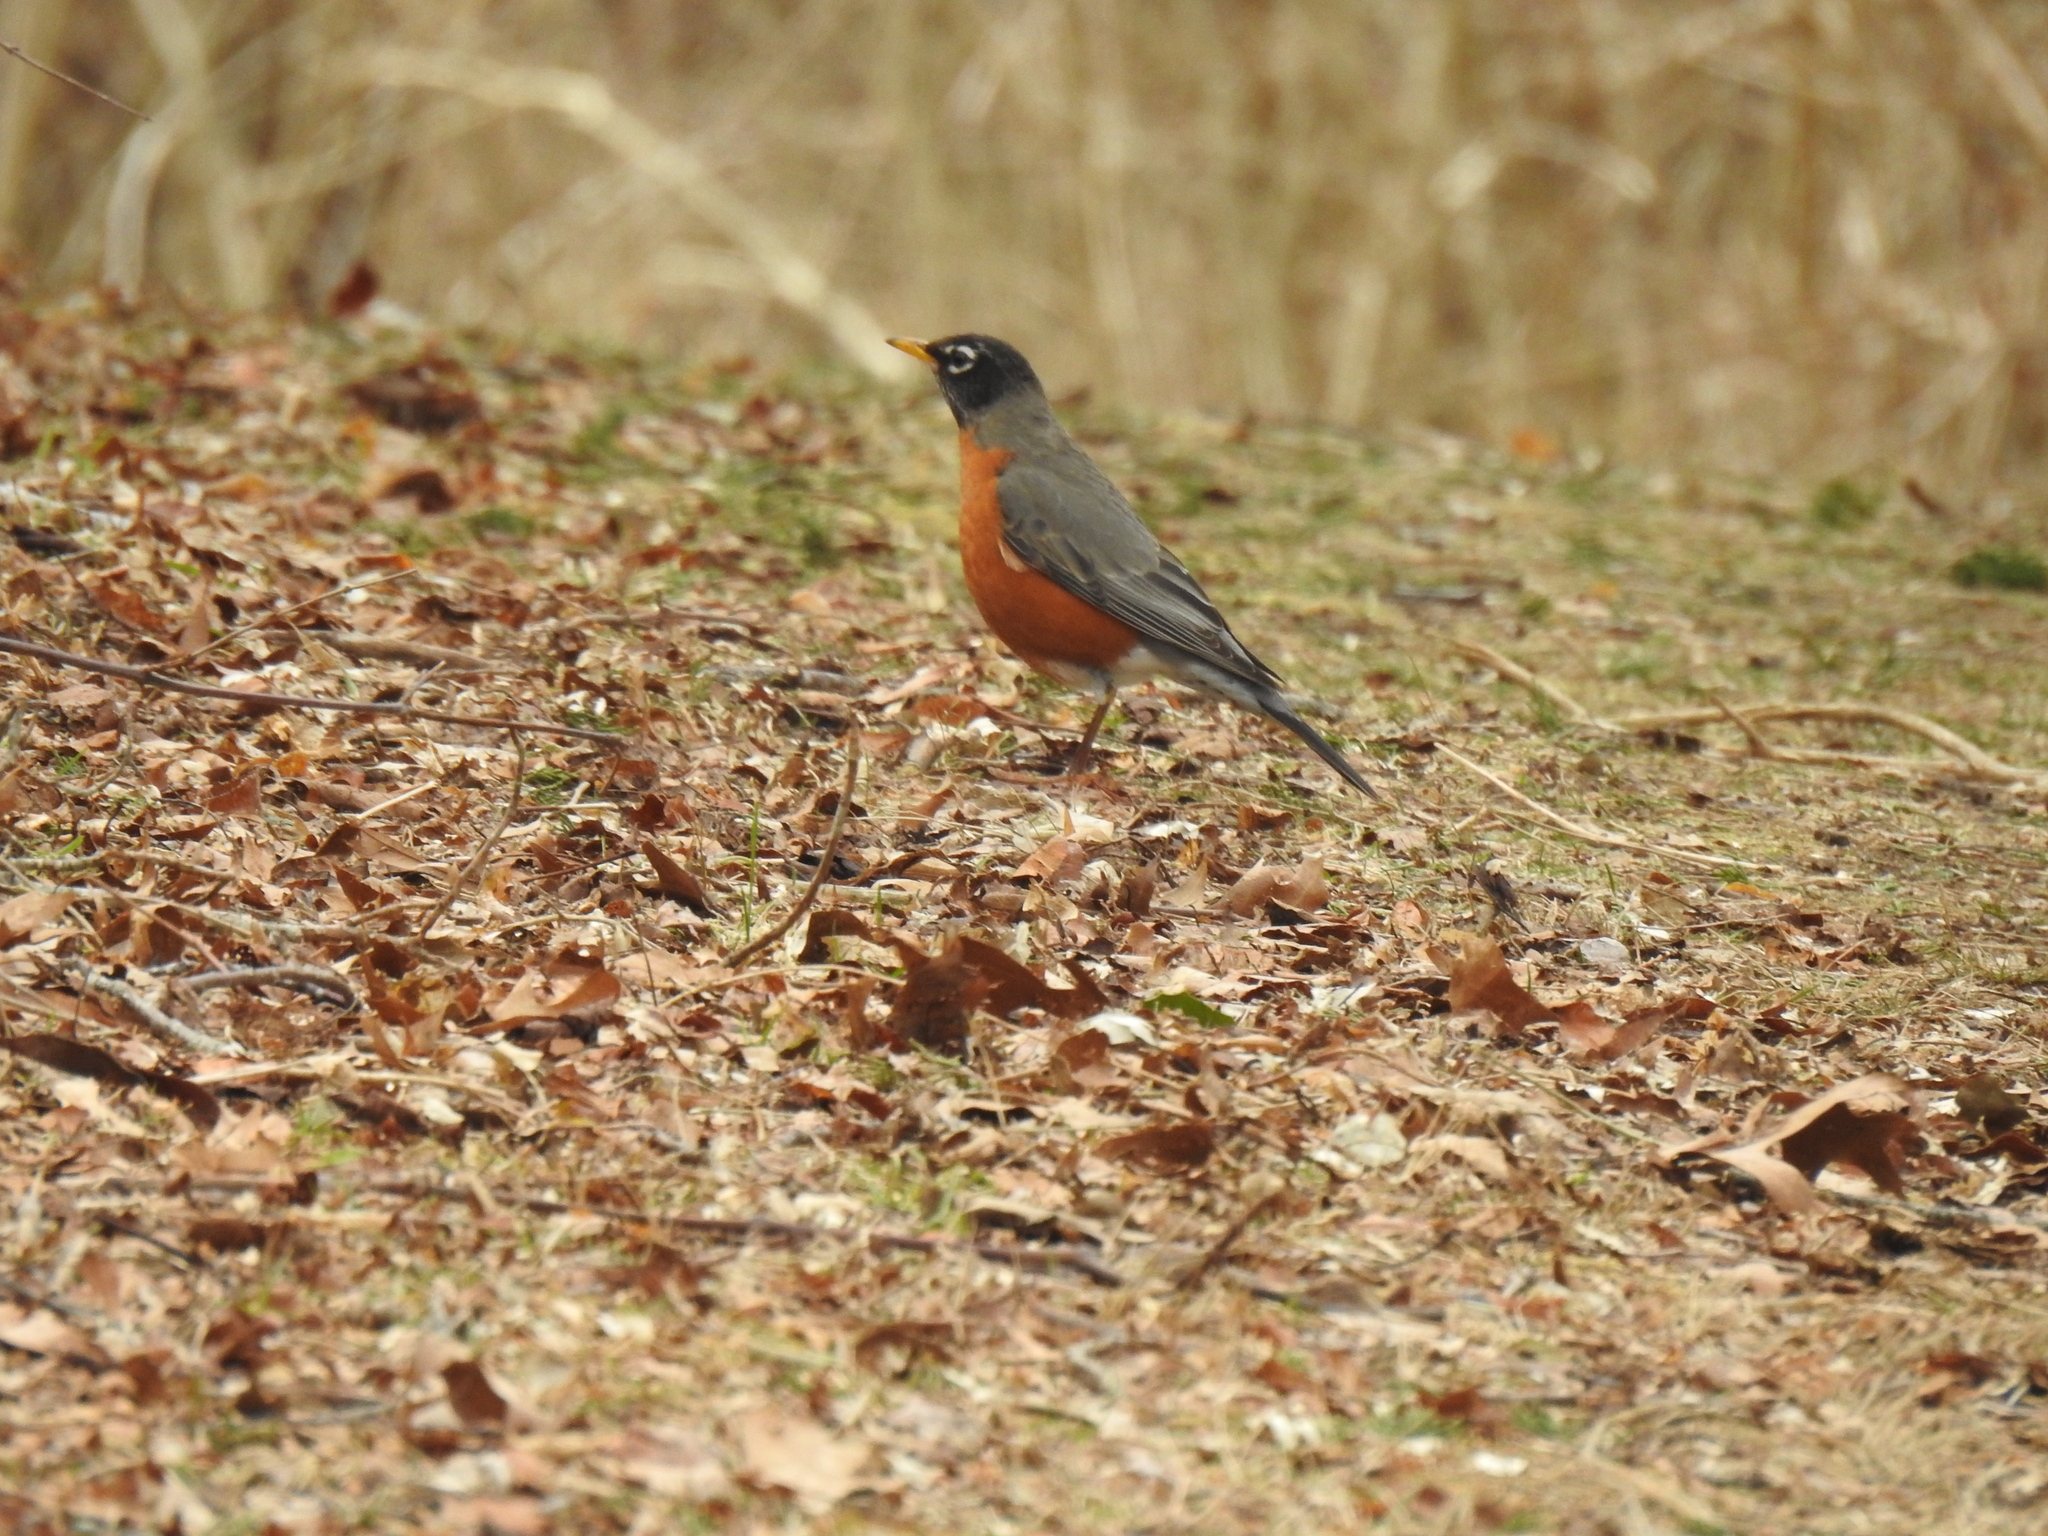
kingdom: Animalia
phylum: Chordata
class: Aves
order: Passeriformes
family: Turdidae
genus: Turdus
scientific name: Turdus migratorius
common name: American robin
